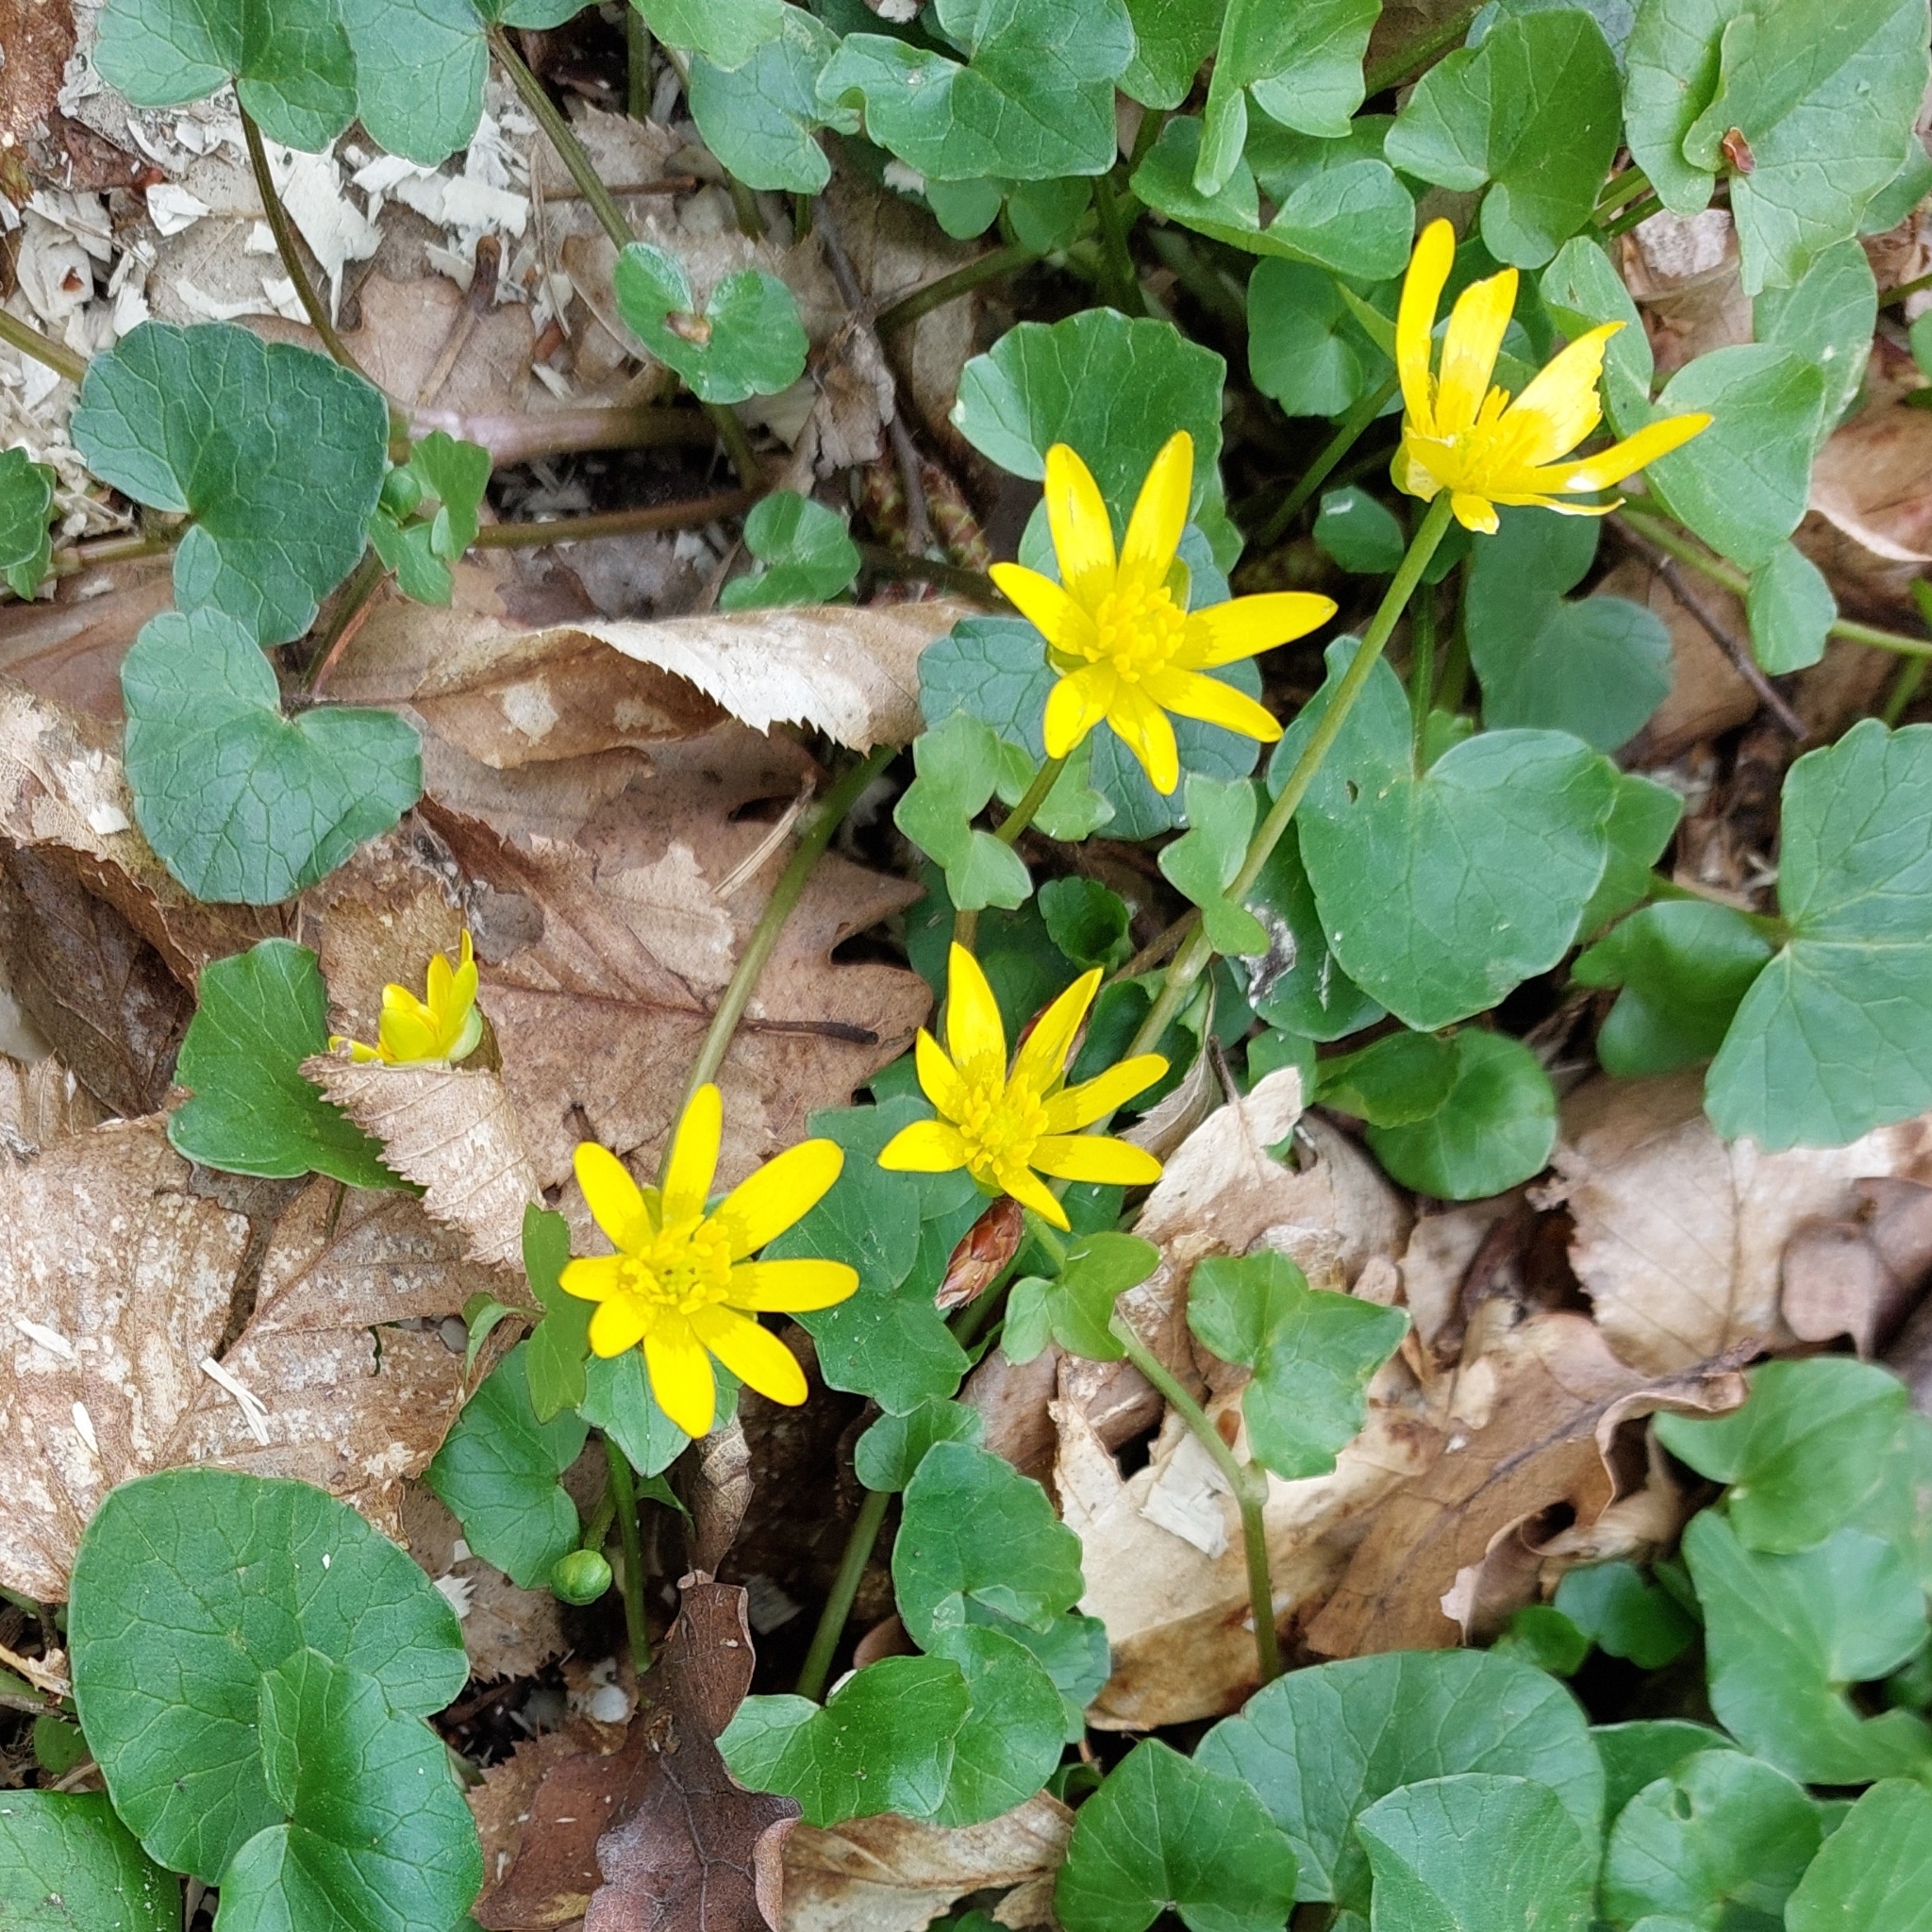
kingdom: Plantae
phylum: Tracheophyta
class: Magnoliopsida
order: Ranunculales
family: Ranunculaceae
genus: Ficaria
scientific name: Ficaria verna
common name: Lesser celandine
